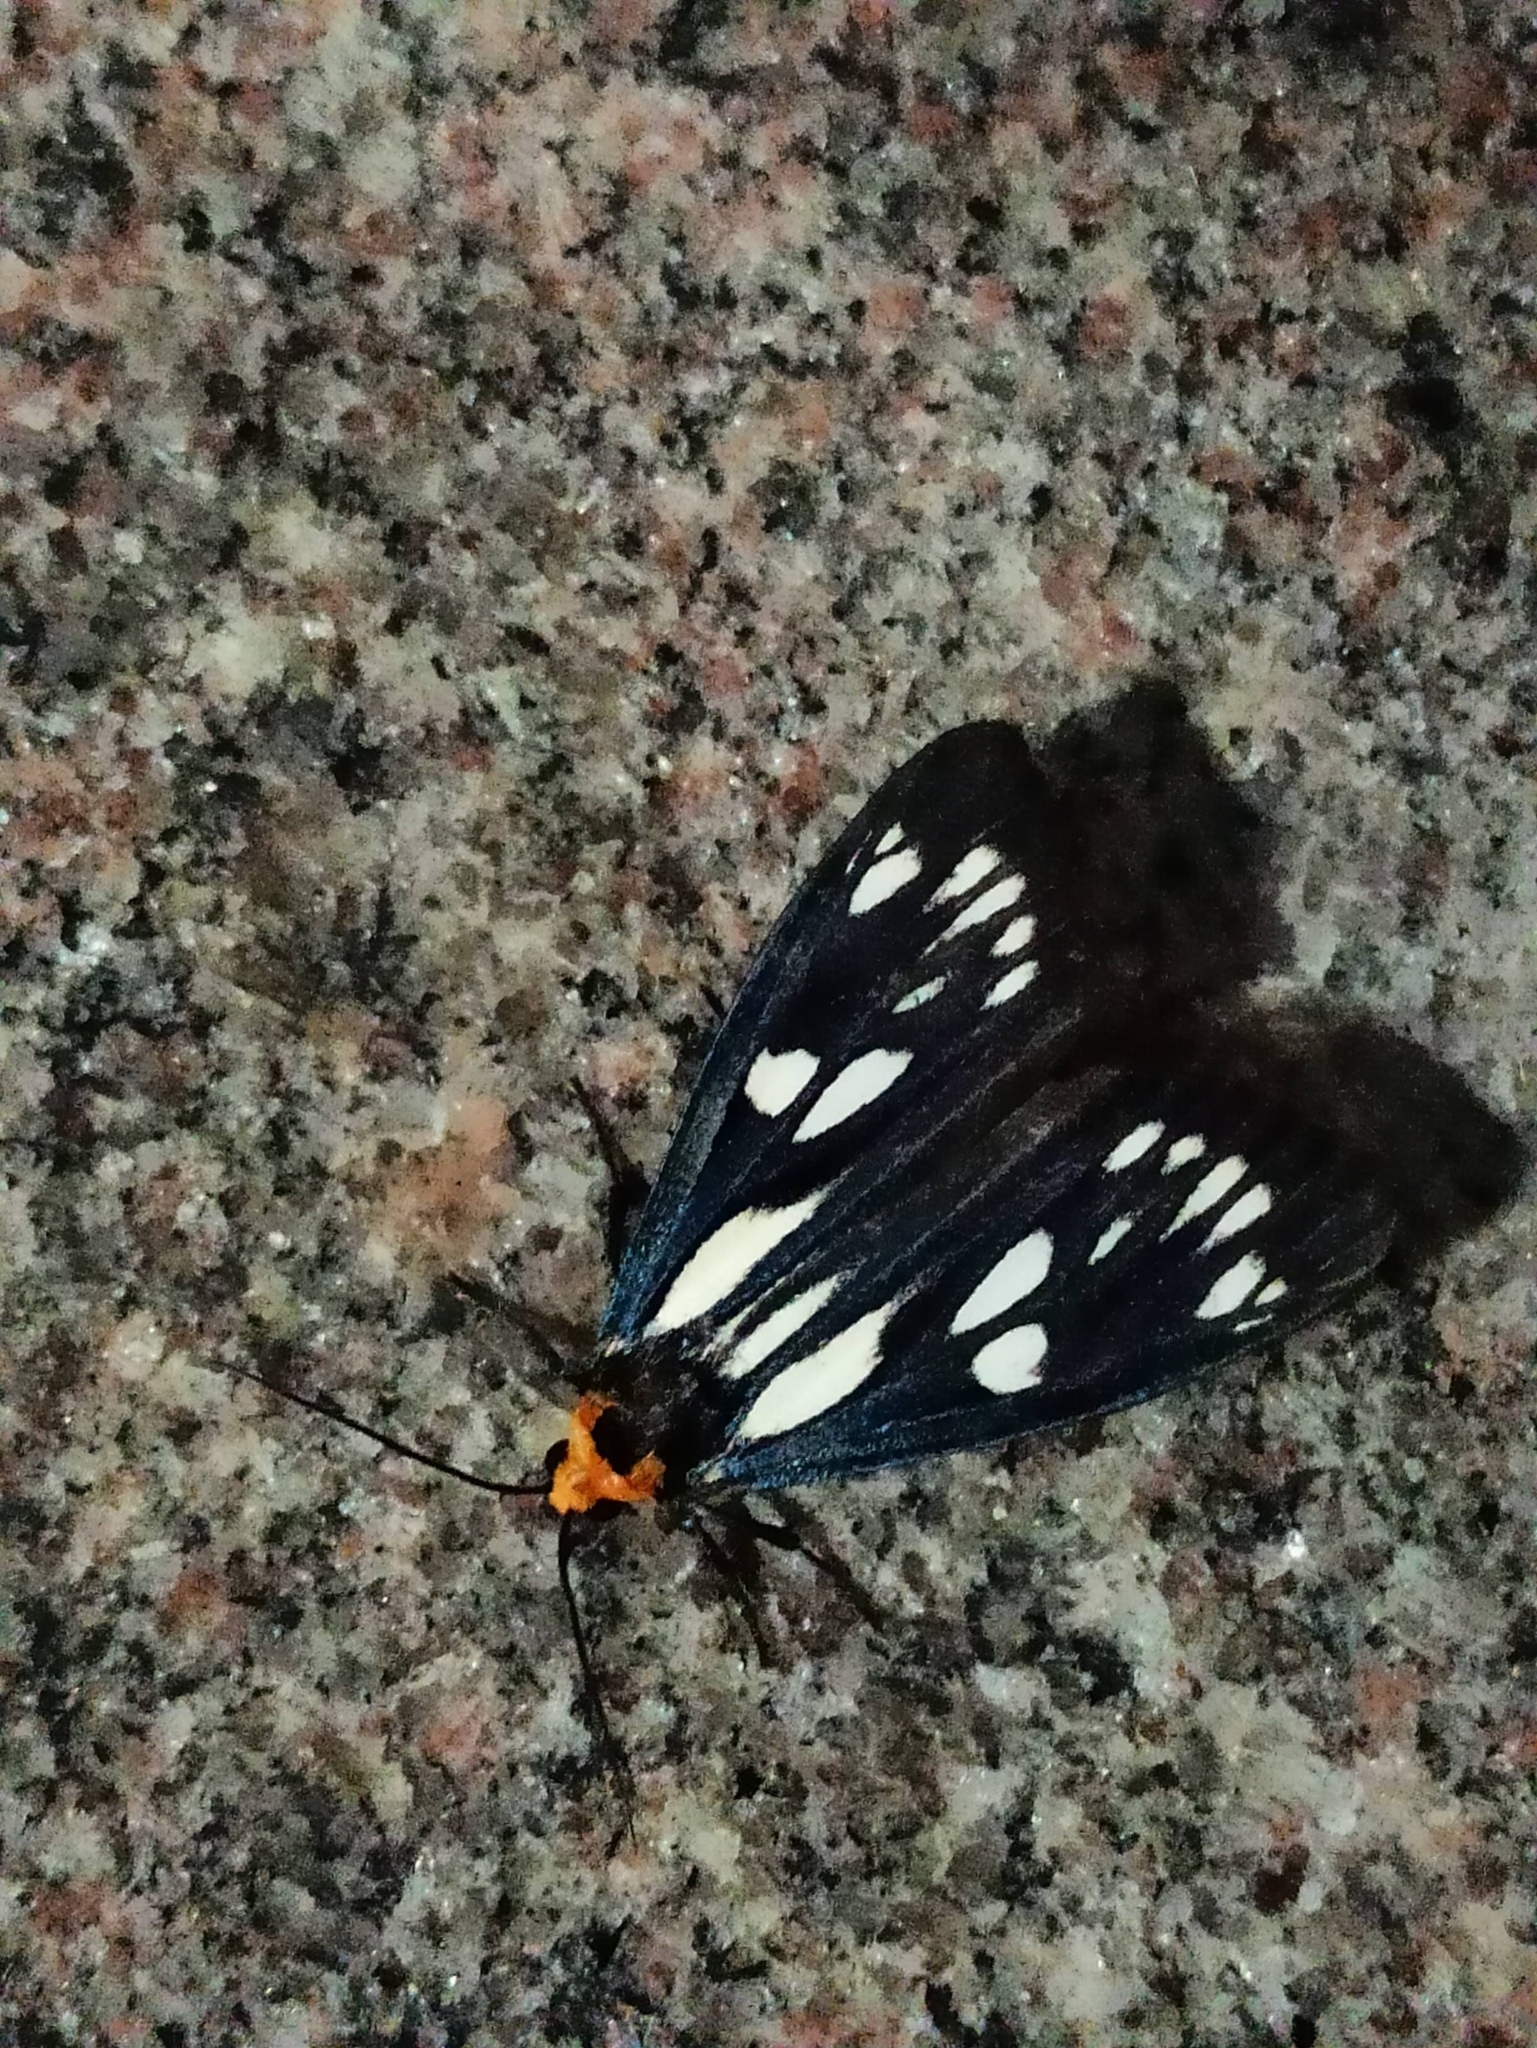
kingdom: Animalia
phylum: Arthropoda
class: Insecta
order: Lepidoptera
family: Erebidae
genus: Macrobrochis
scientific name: Macrobrochis gigas
